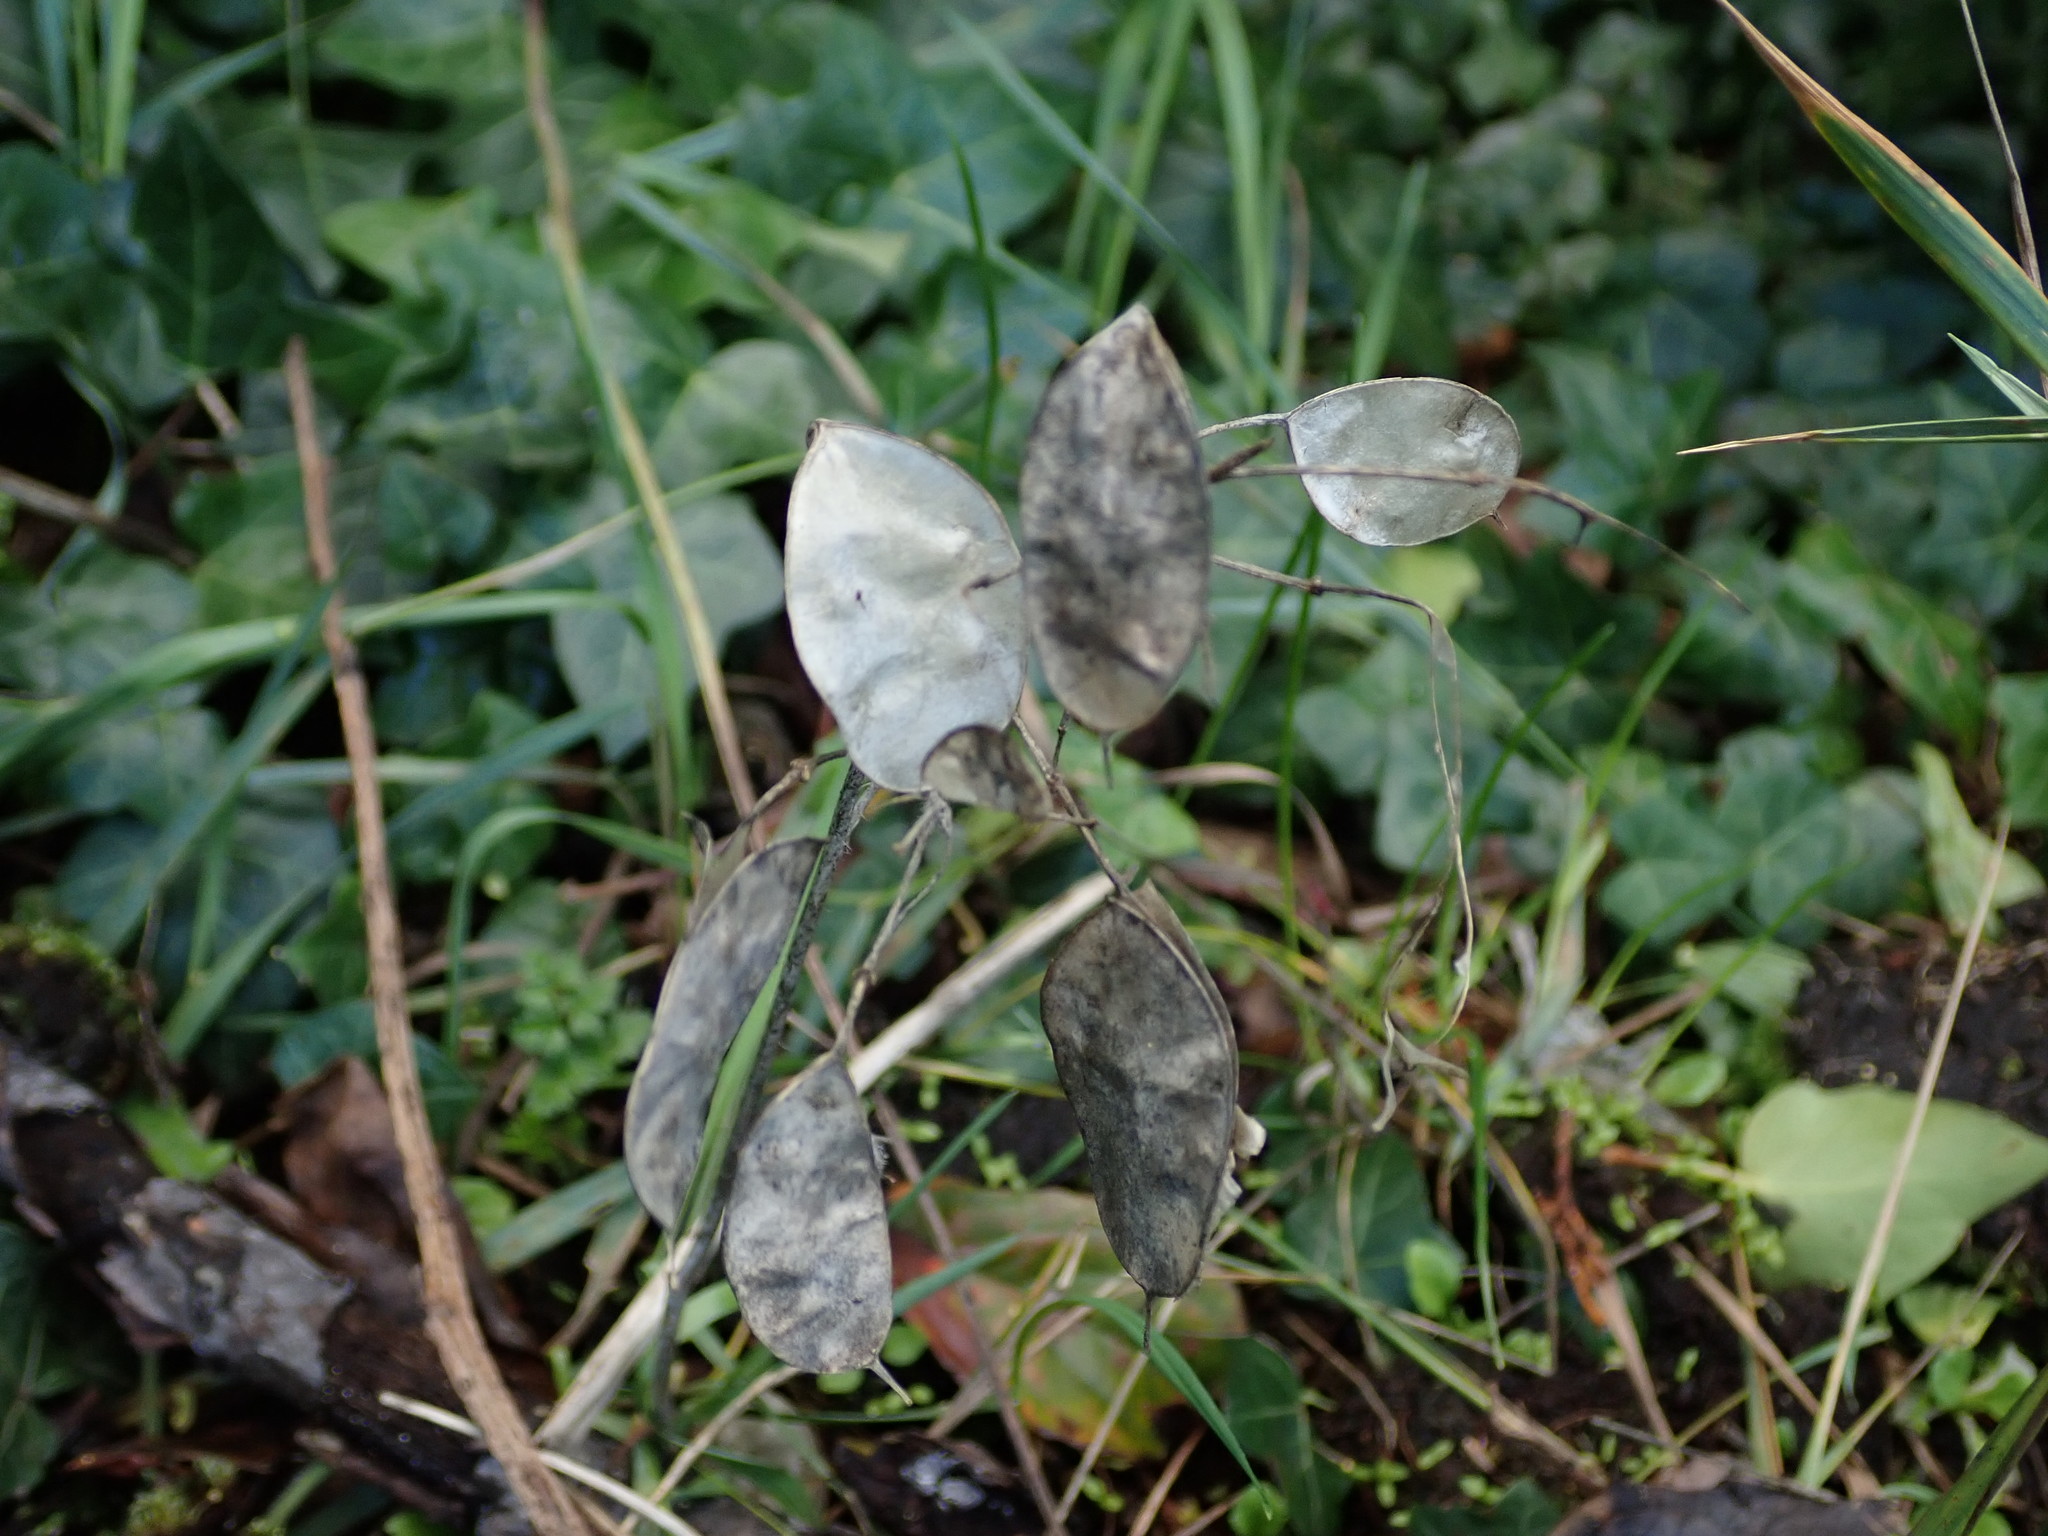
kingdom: Plantae
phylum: Tracheophyta
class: Magnoliopsida
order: Brassicales
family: Brassicaceae
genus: Lunaria
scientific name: Lunaria annua
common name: Honesty
